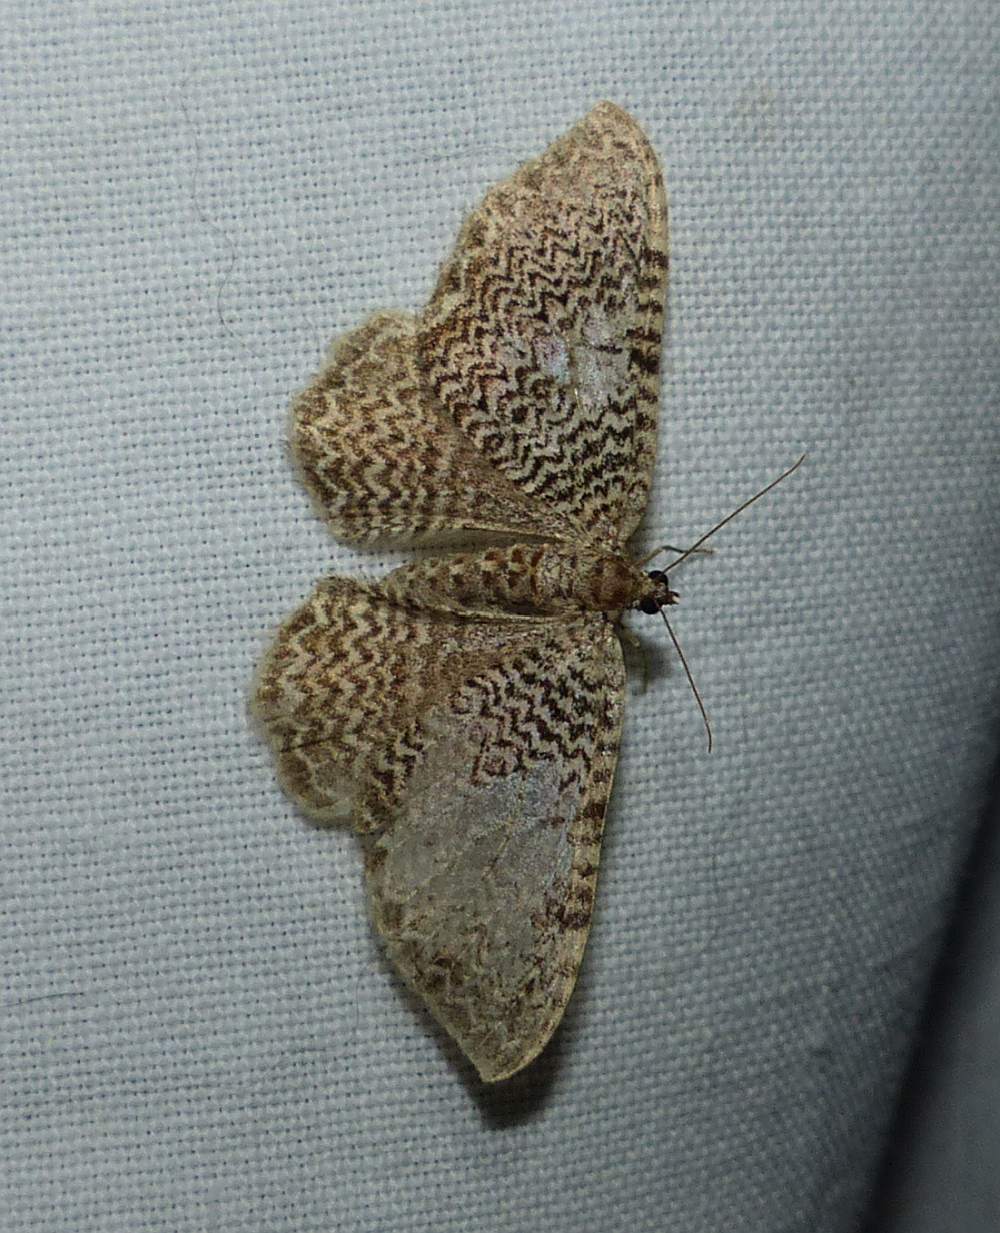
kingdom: Animalia
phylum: Arthropoda
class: Insecta
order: Lepidoptera
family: Geometridae
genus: Rheumaptera
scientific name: Rheumaptera
